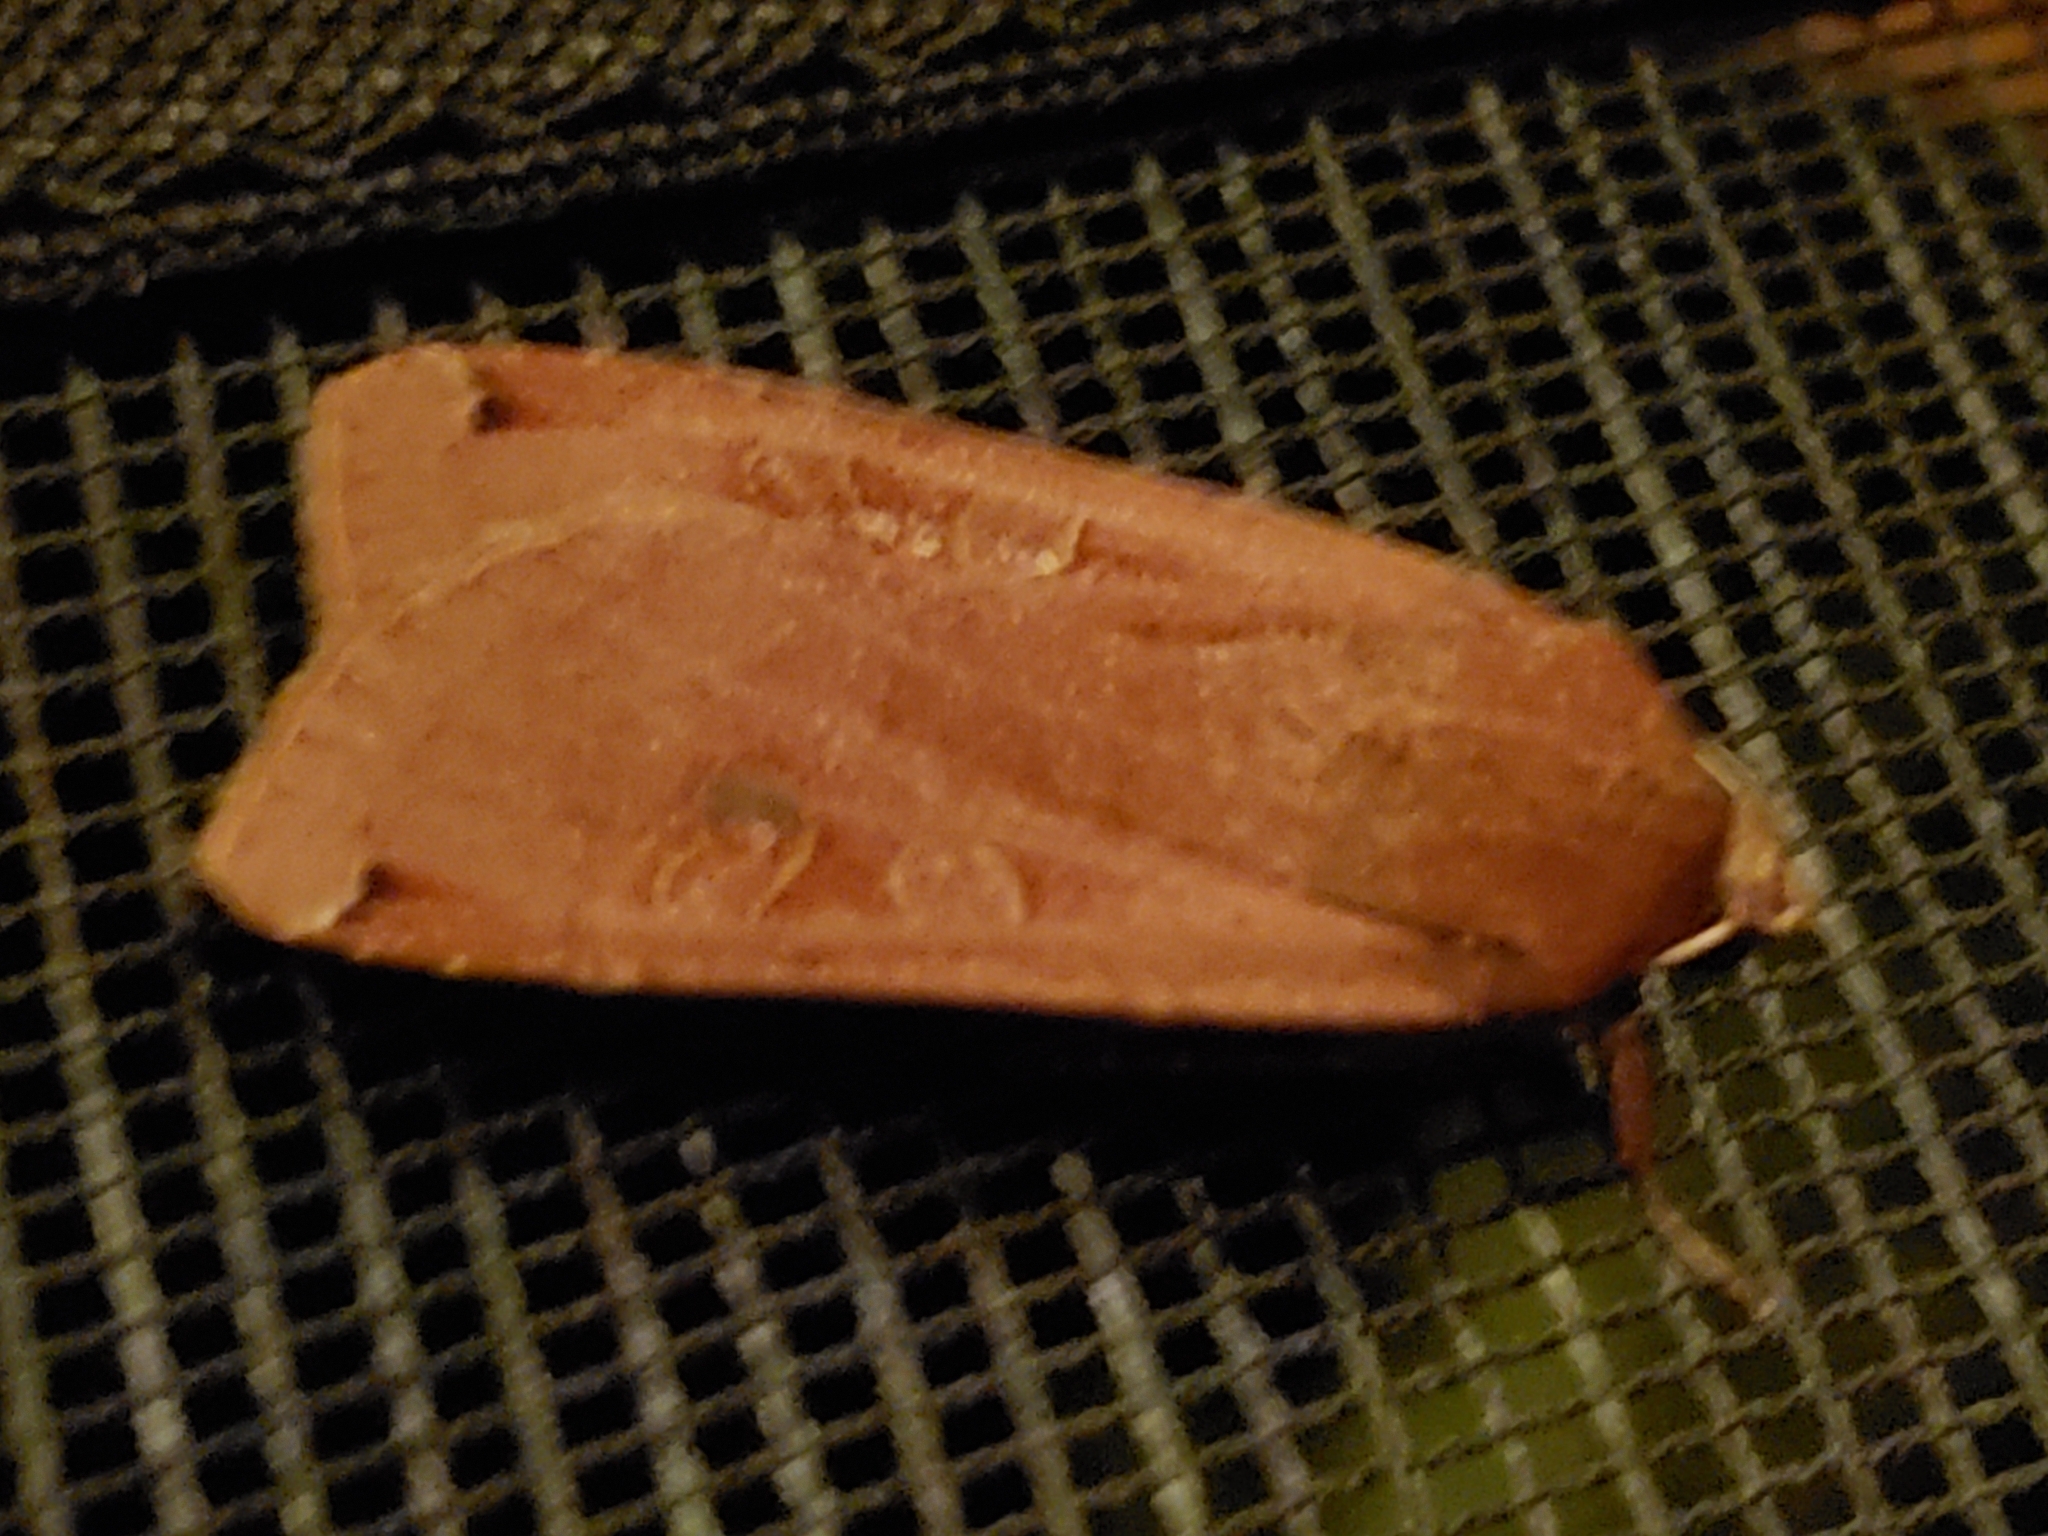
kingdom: Animalia
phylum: Arthropoda
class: Insecta
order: Lepidoptera
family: Noctuidae
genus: Noctua
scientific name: Noctua pronuba
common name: Large yellow underwing
